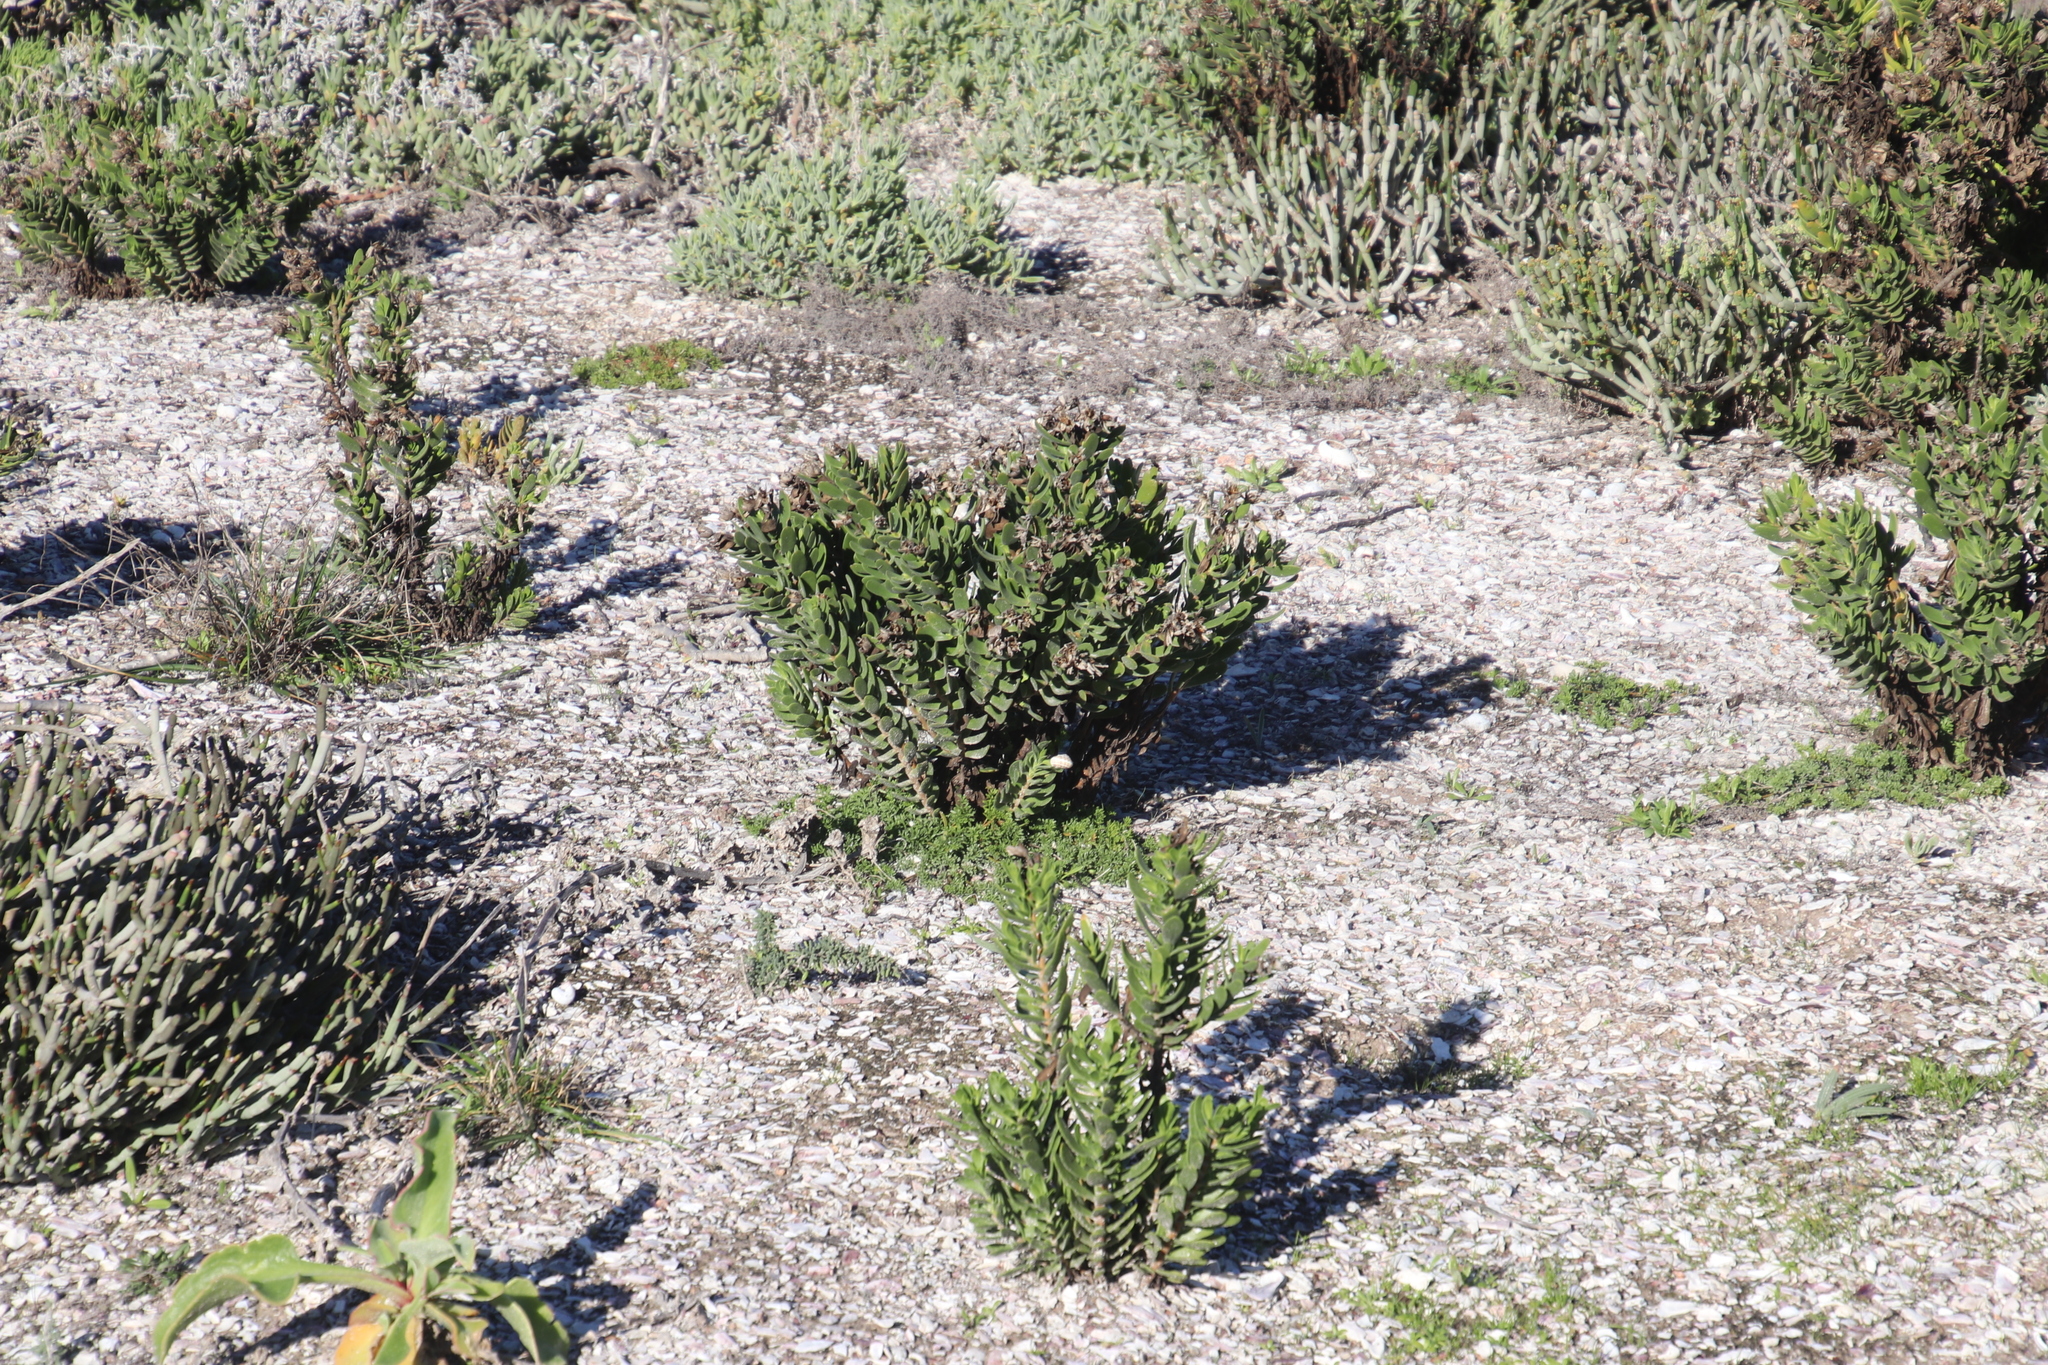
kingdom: Plantae
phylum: Tracheophyta
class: Magnoliopsida
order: Gentianales
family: Gentianaceae
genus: Orphium
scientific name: Orphium frutescens
